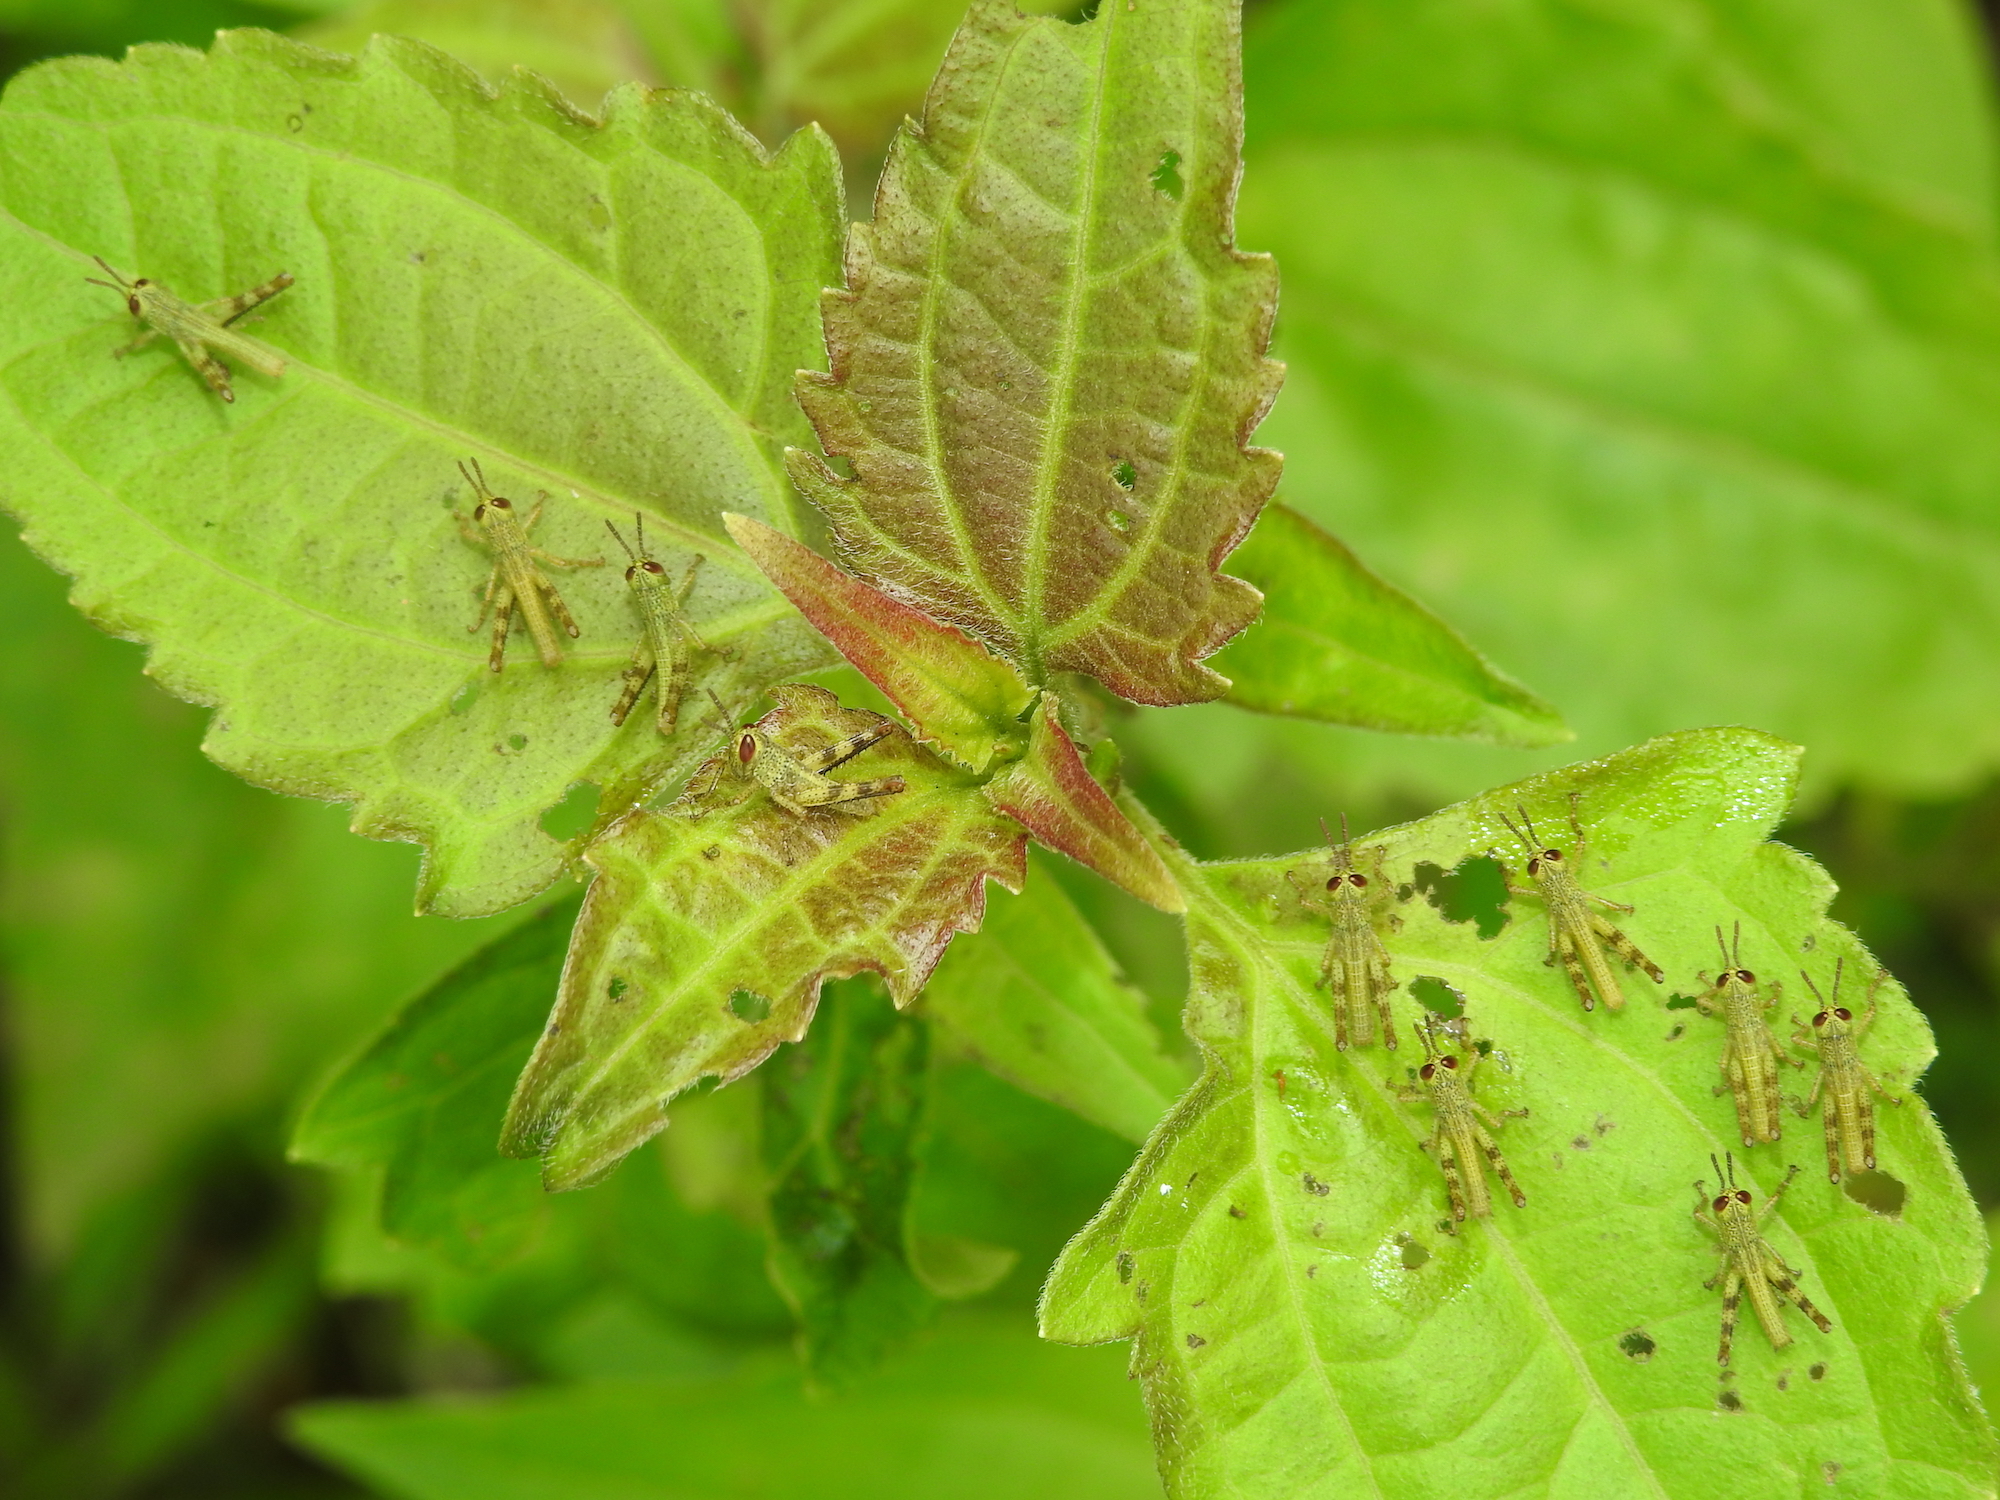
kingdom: Animalia
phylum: Arthropoda
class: Insecta
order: Orthoptera
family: Acrididae
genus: Valanga
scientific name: Valanga nigricornis
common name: Javanese bird grasshopper
